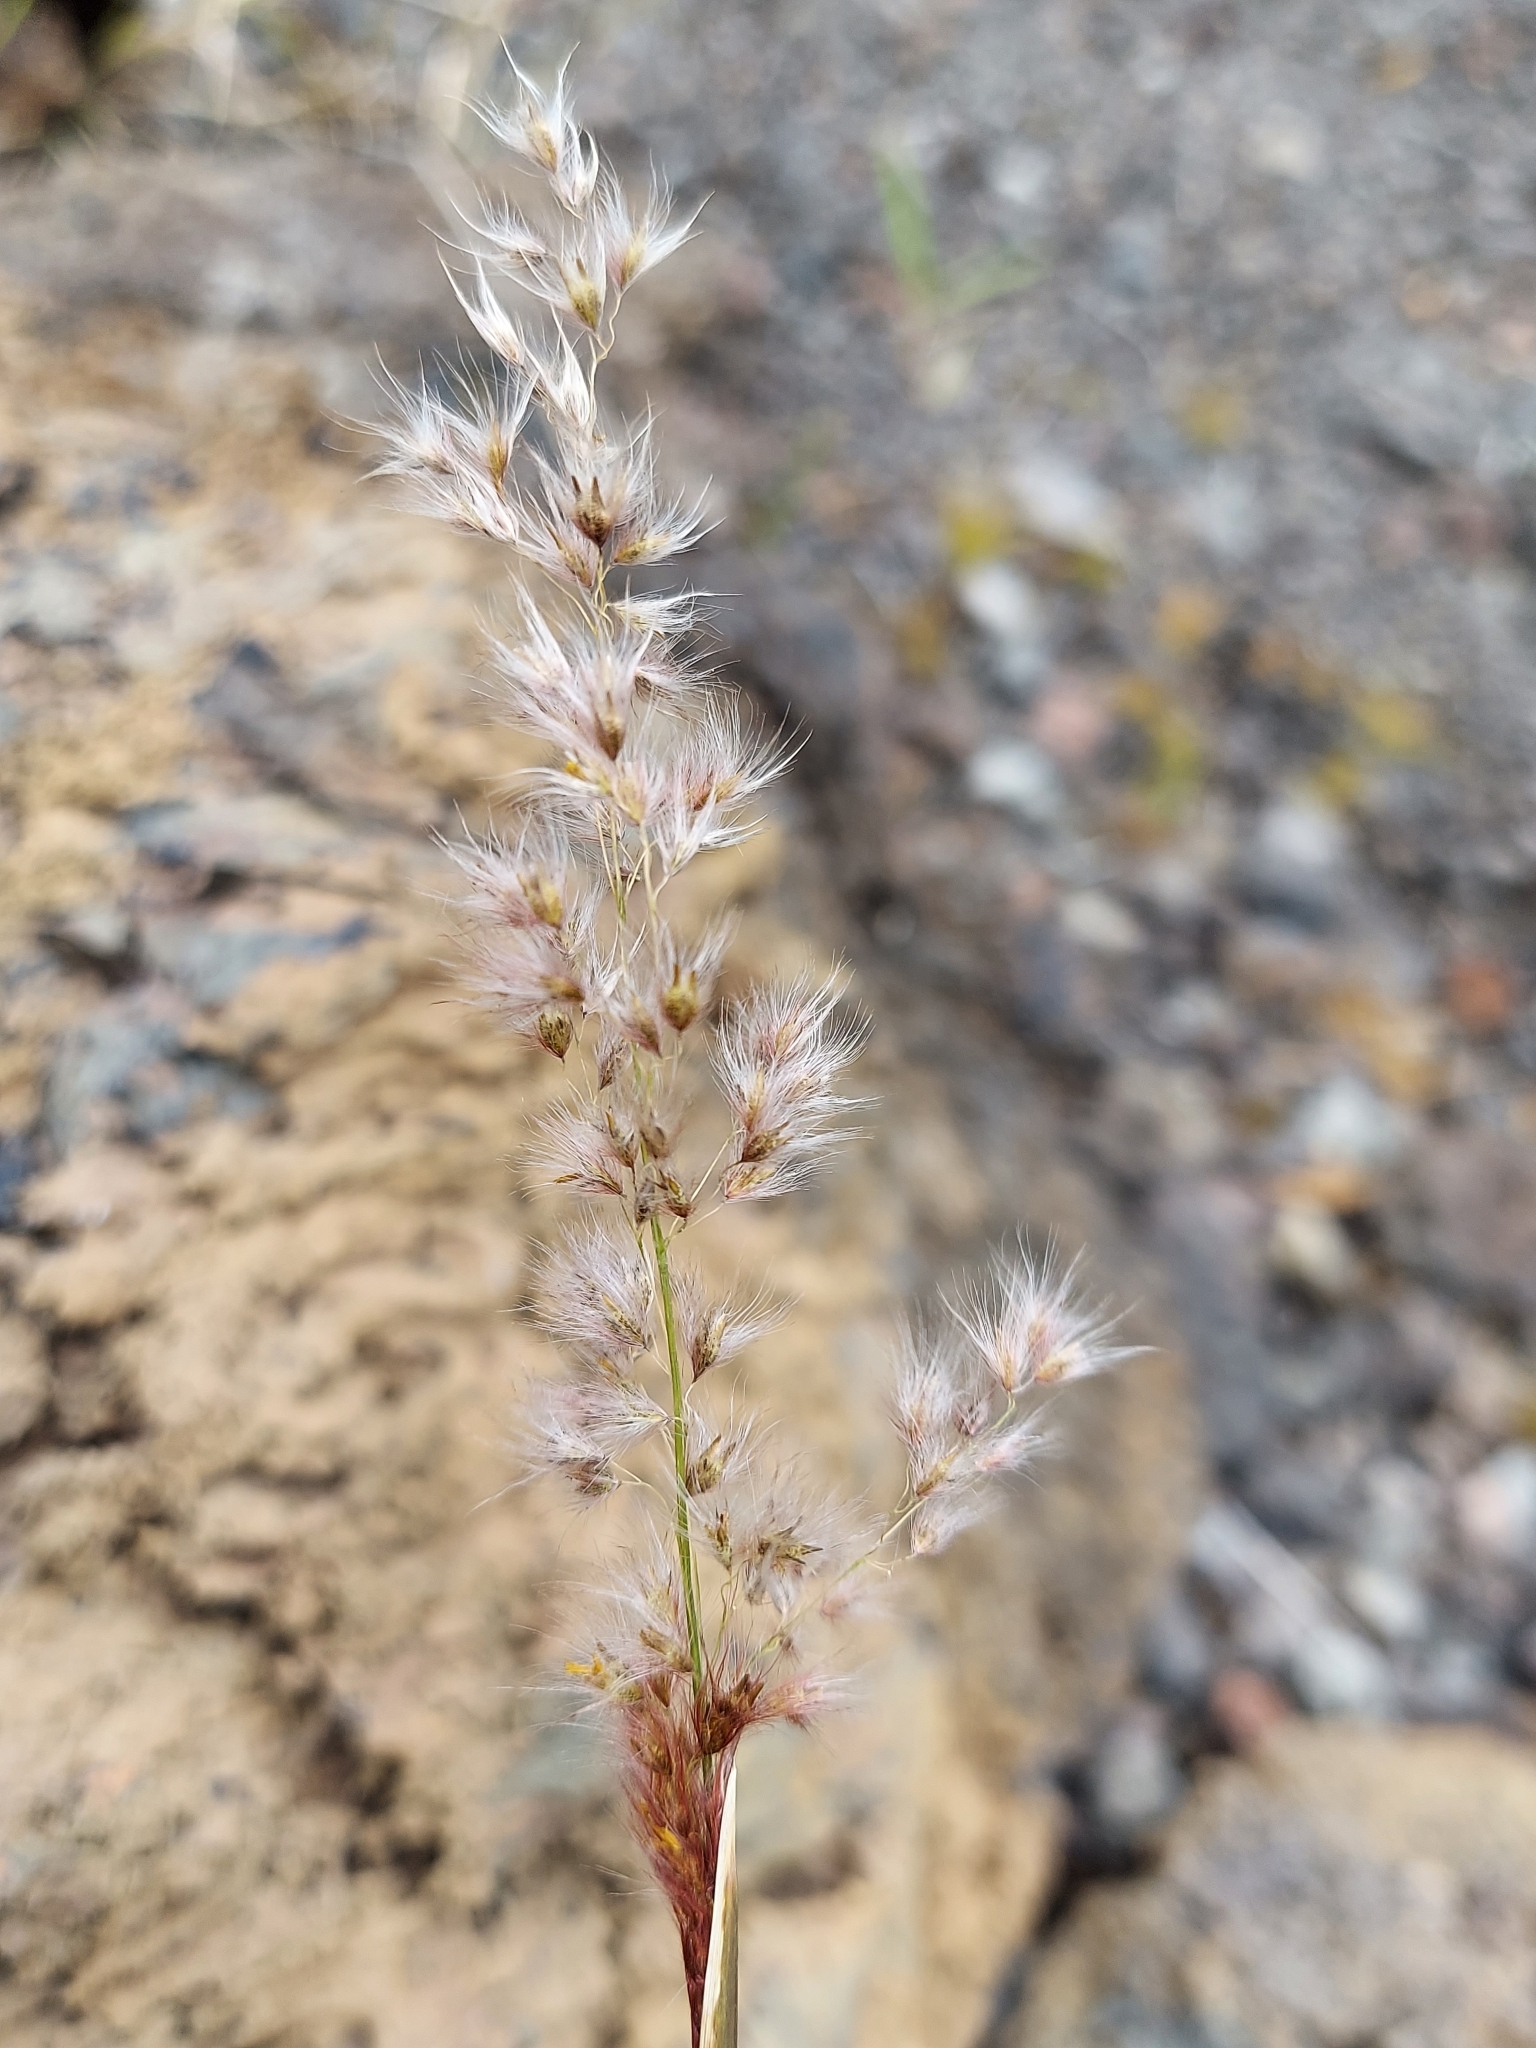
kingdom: Plantae
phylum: Tracheophyta
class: Liliopsida
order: Poales
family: Poaceae
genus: Melinis
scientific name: Melinis repens
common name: Rose natal grass
